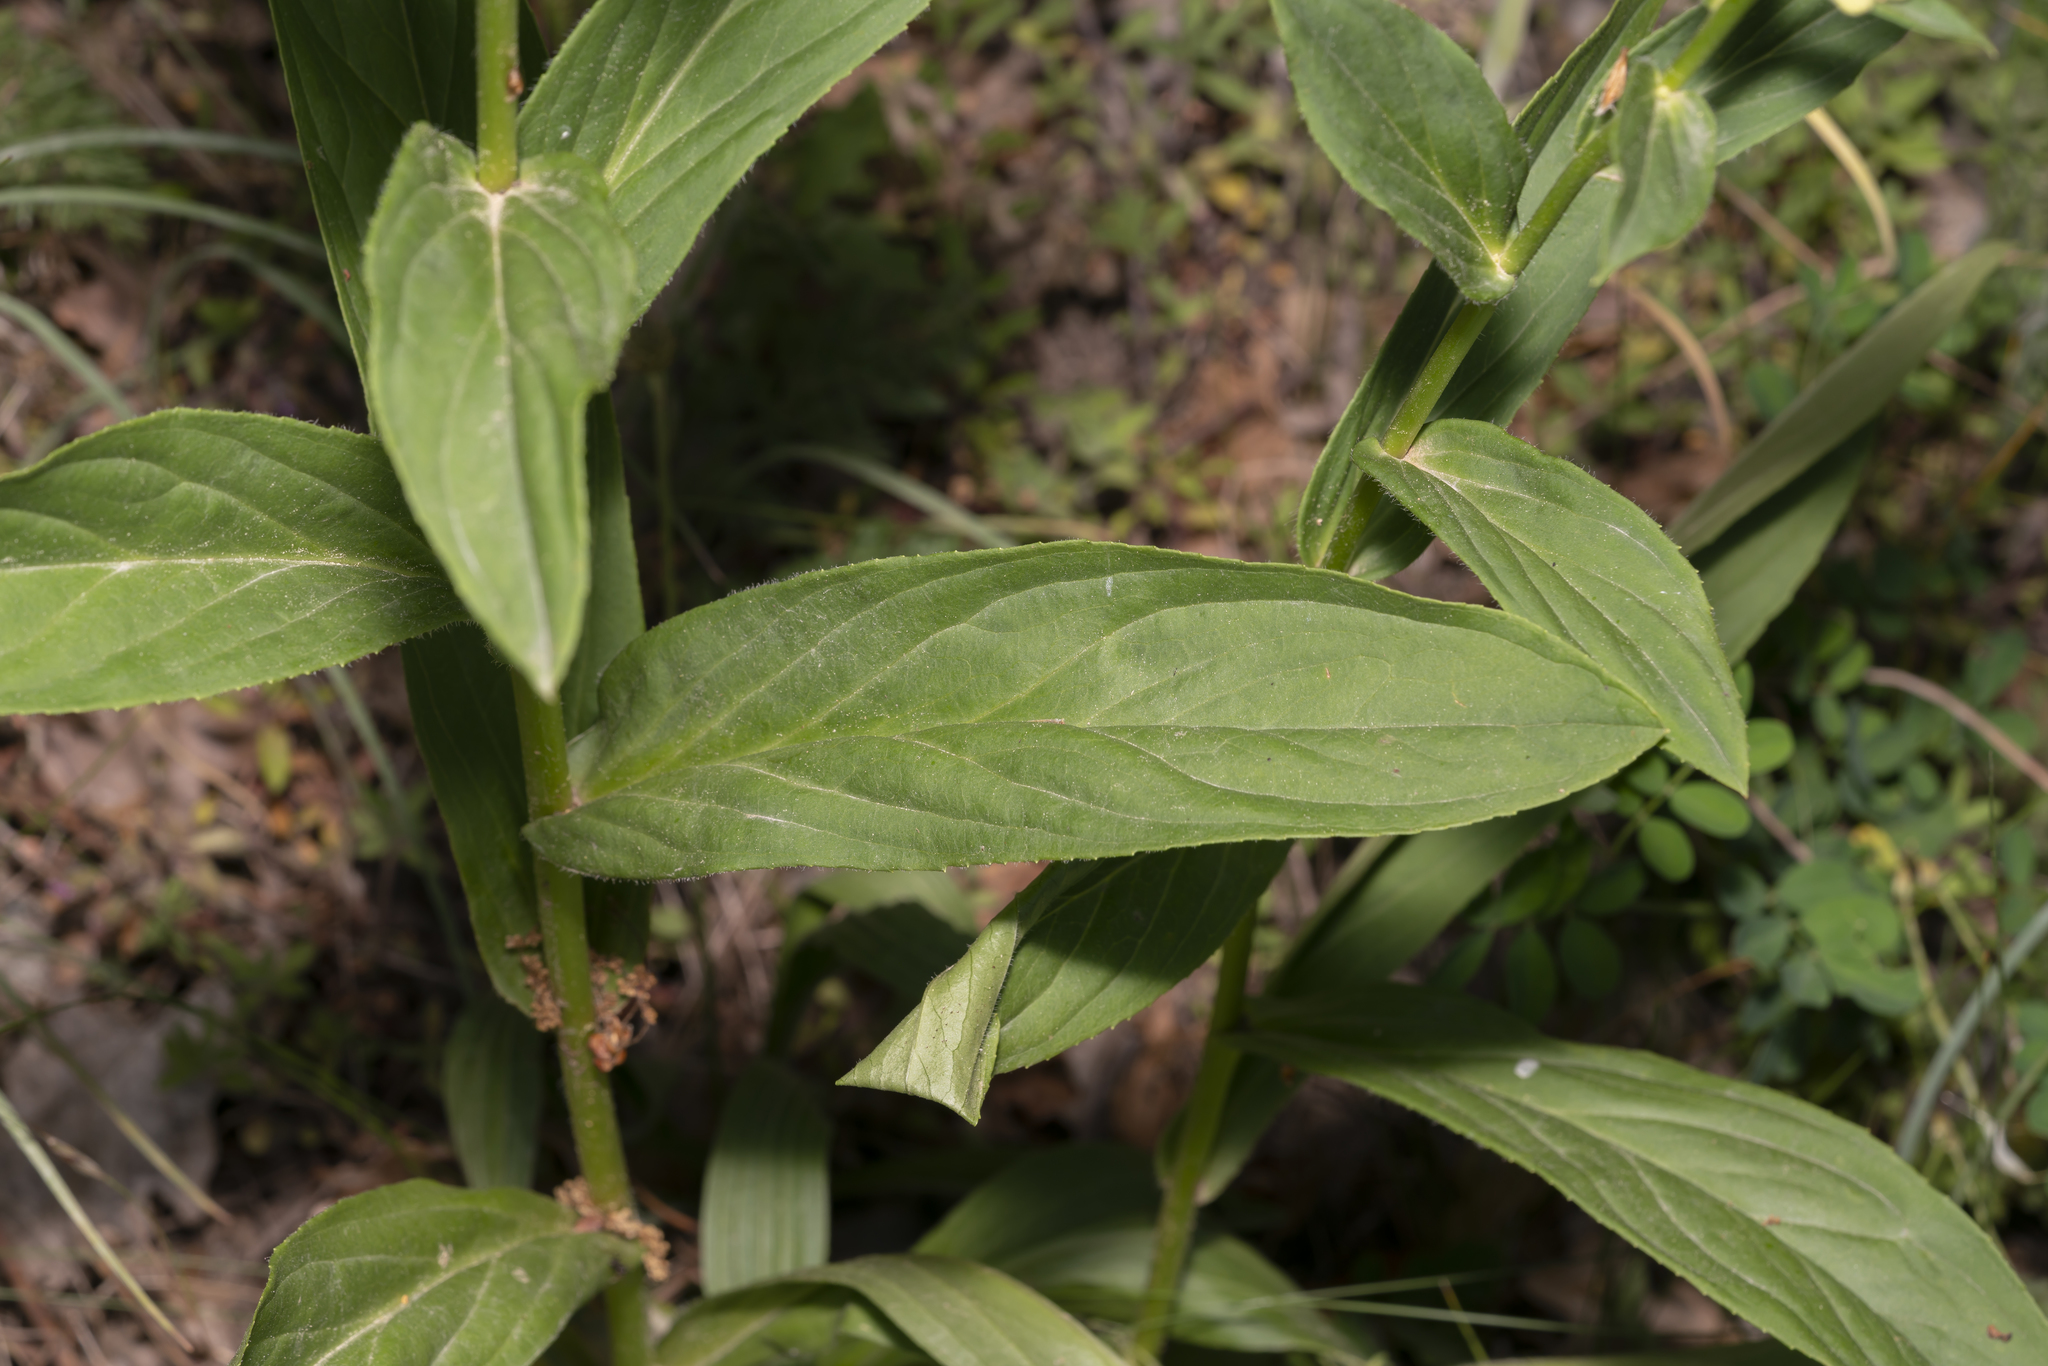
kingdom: Plantae
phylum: Tracheophyta
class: Magnoliopsida
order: Lamiales
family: Plantaginaceae
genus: Digitalis
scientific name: Digitalis lutea
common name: Straw foxglove
